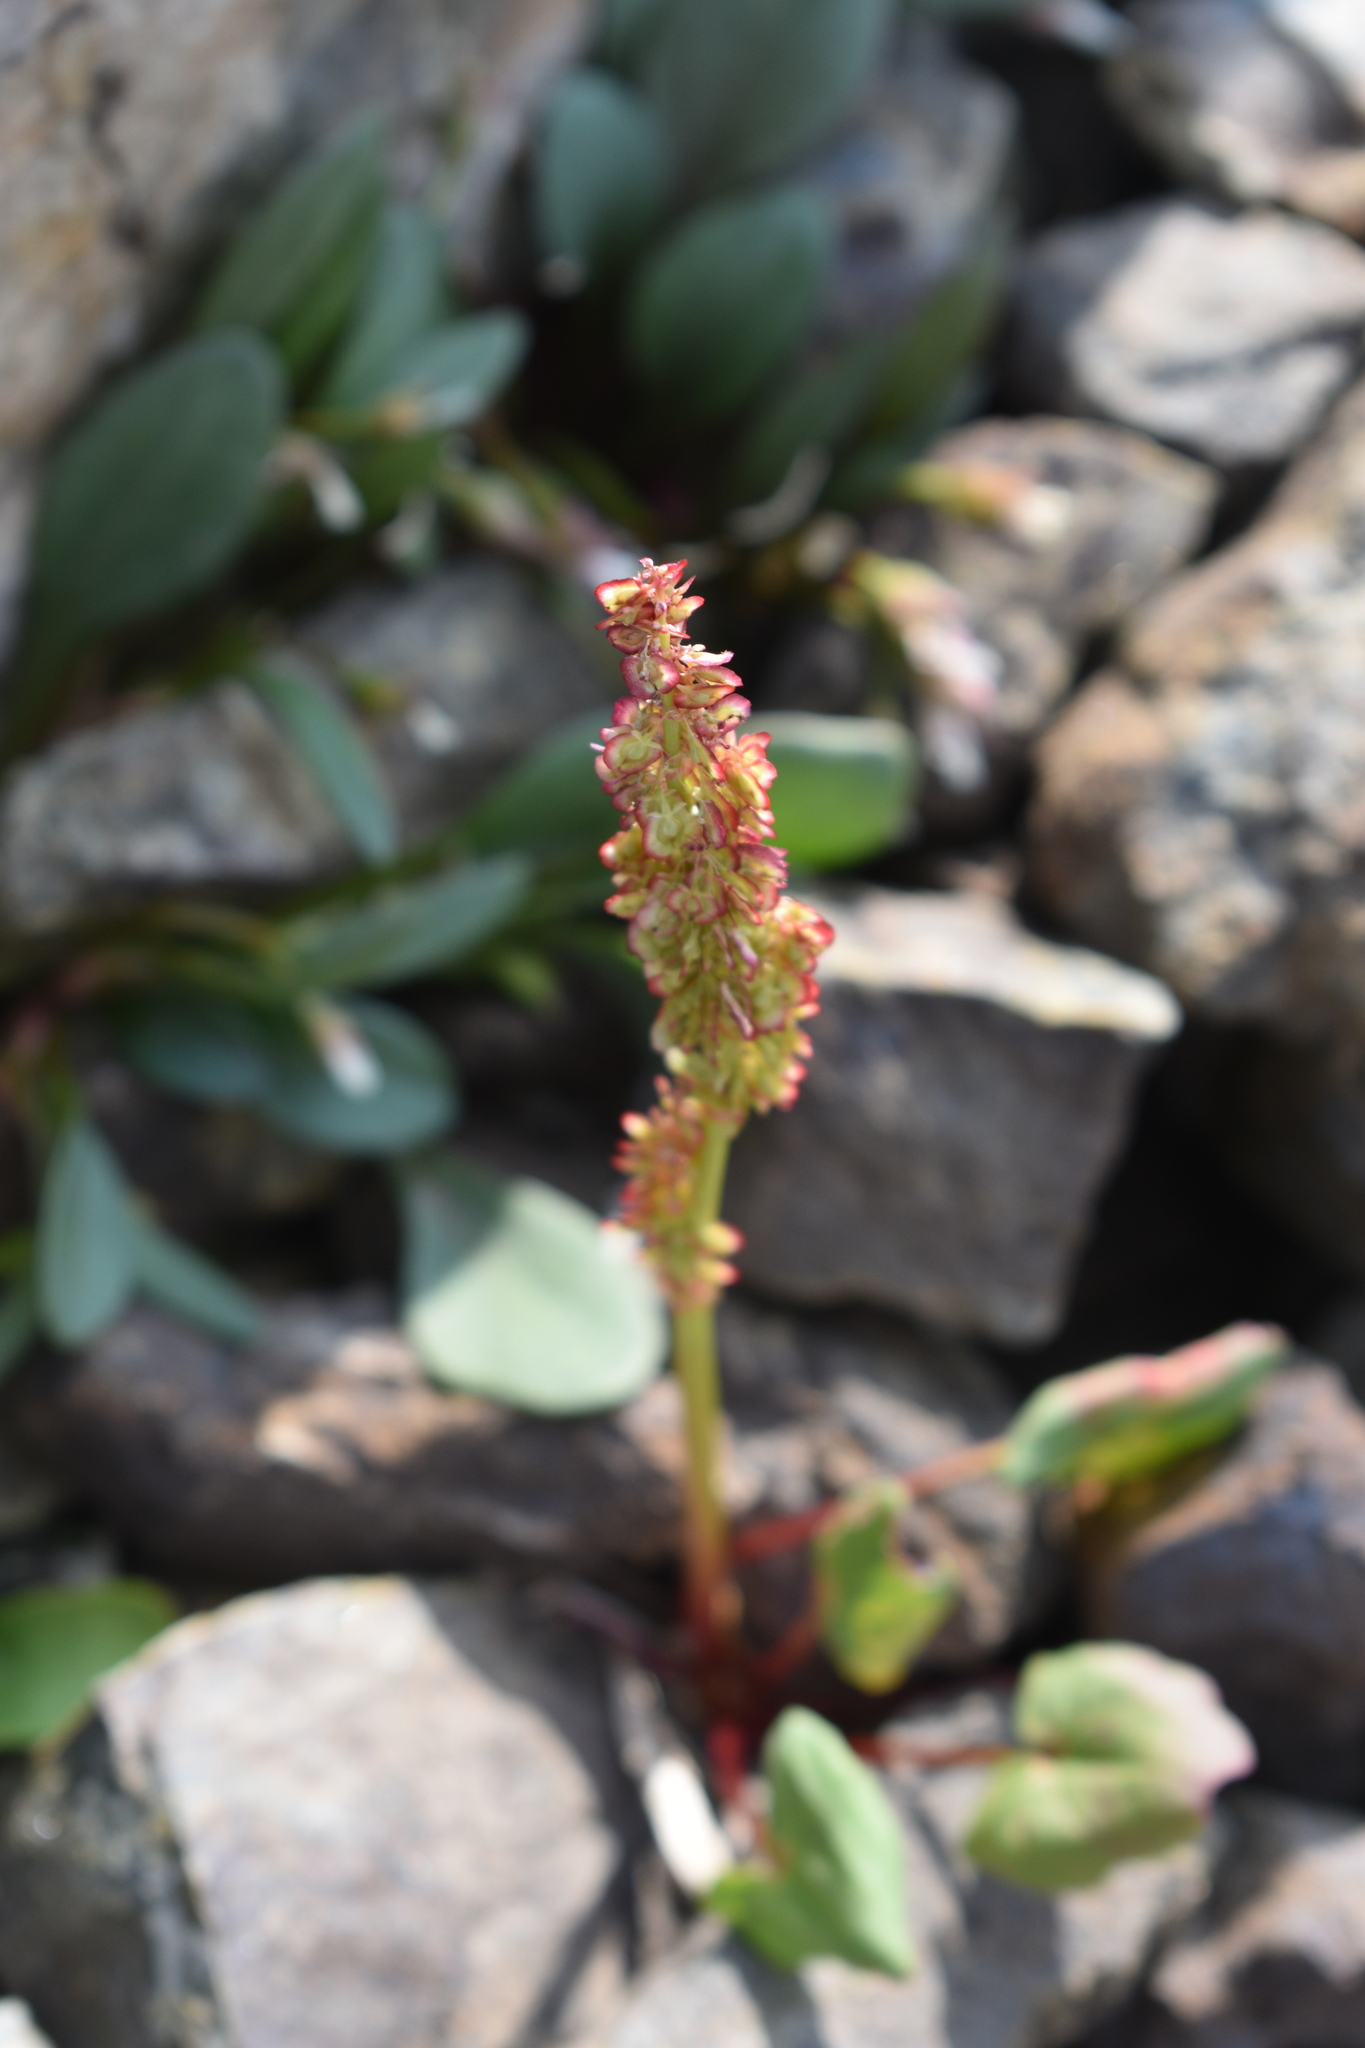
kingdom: Plantae
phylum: Tracheophyta
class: Magnoliopsida
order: Caryophyllales
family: Polygonaceae
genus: Oxyria
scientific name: Oxyria digyna
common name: Alpine mountain-sorrel
